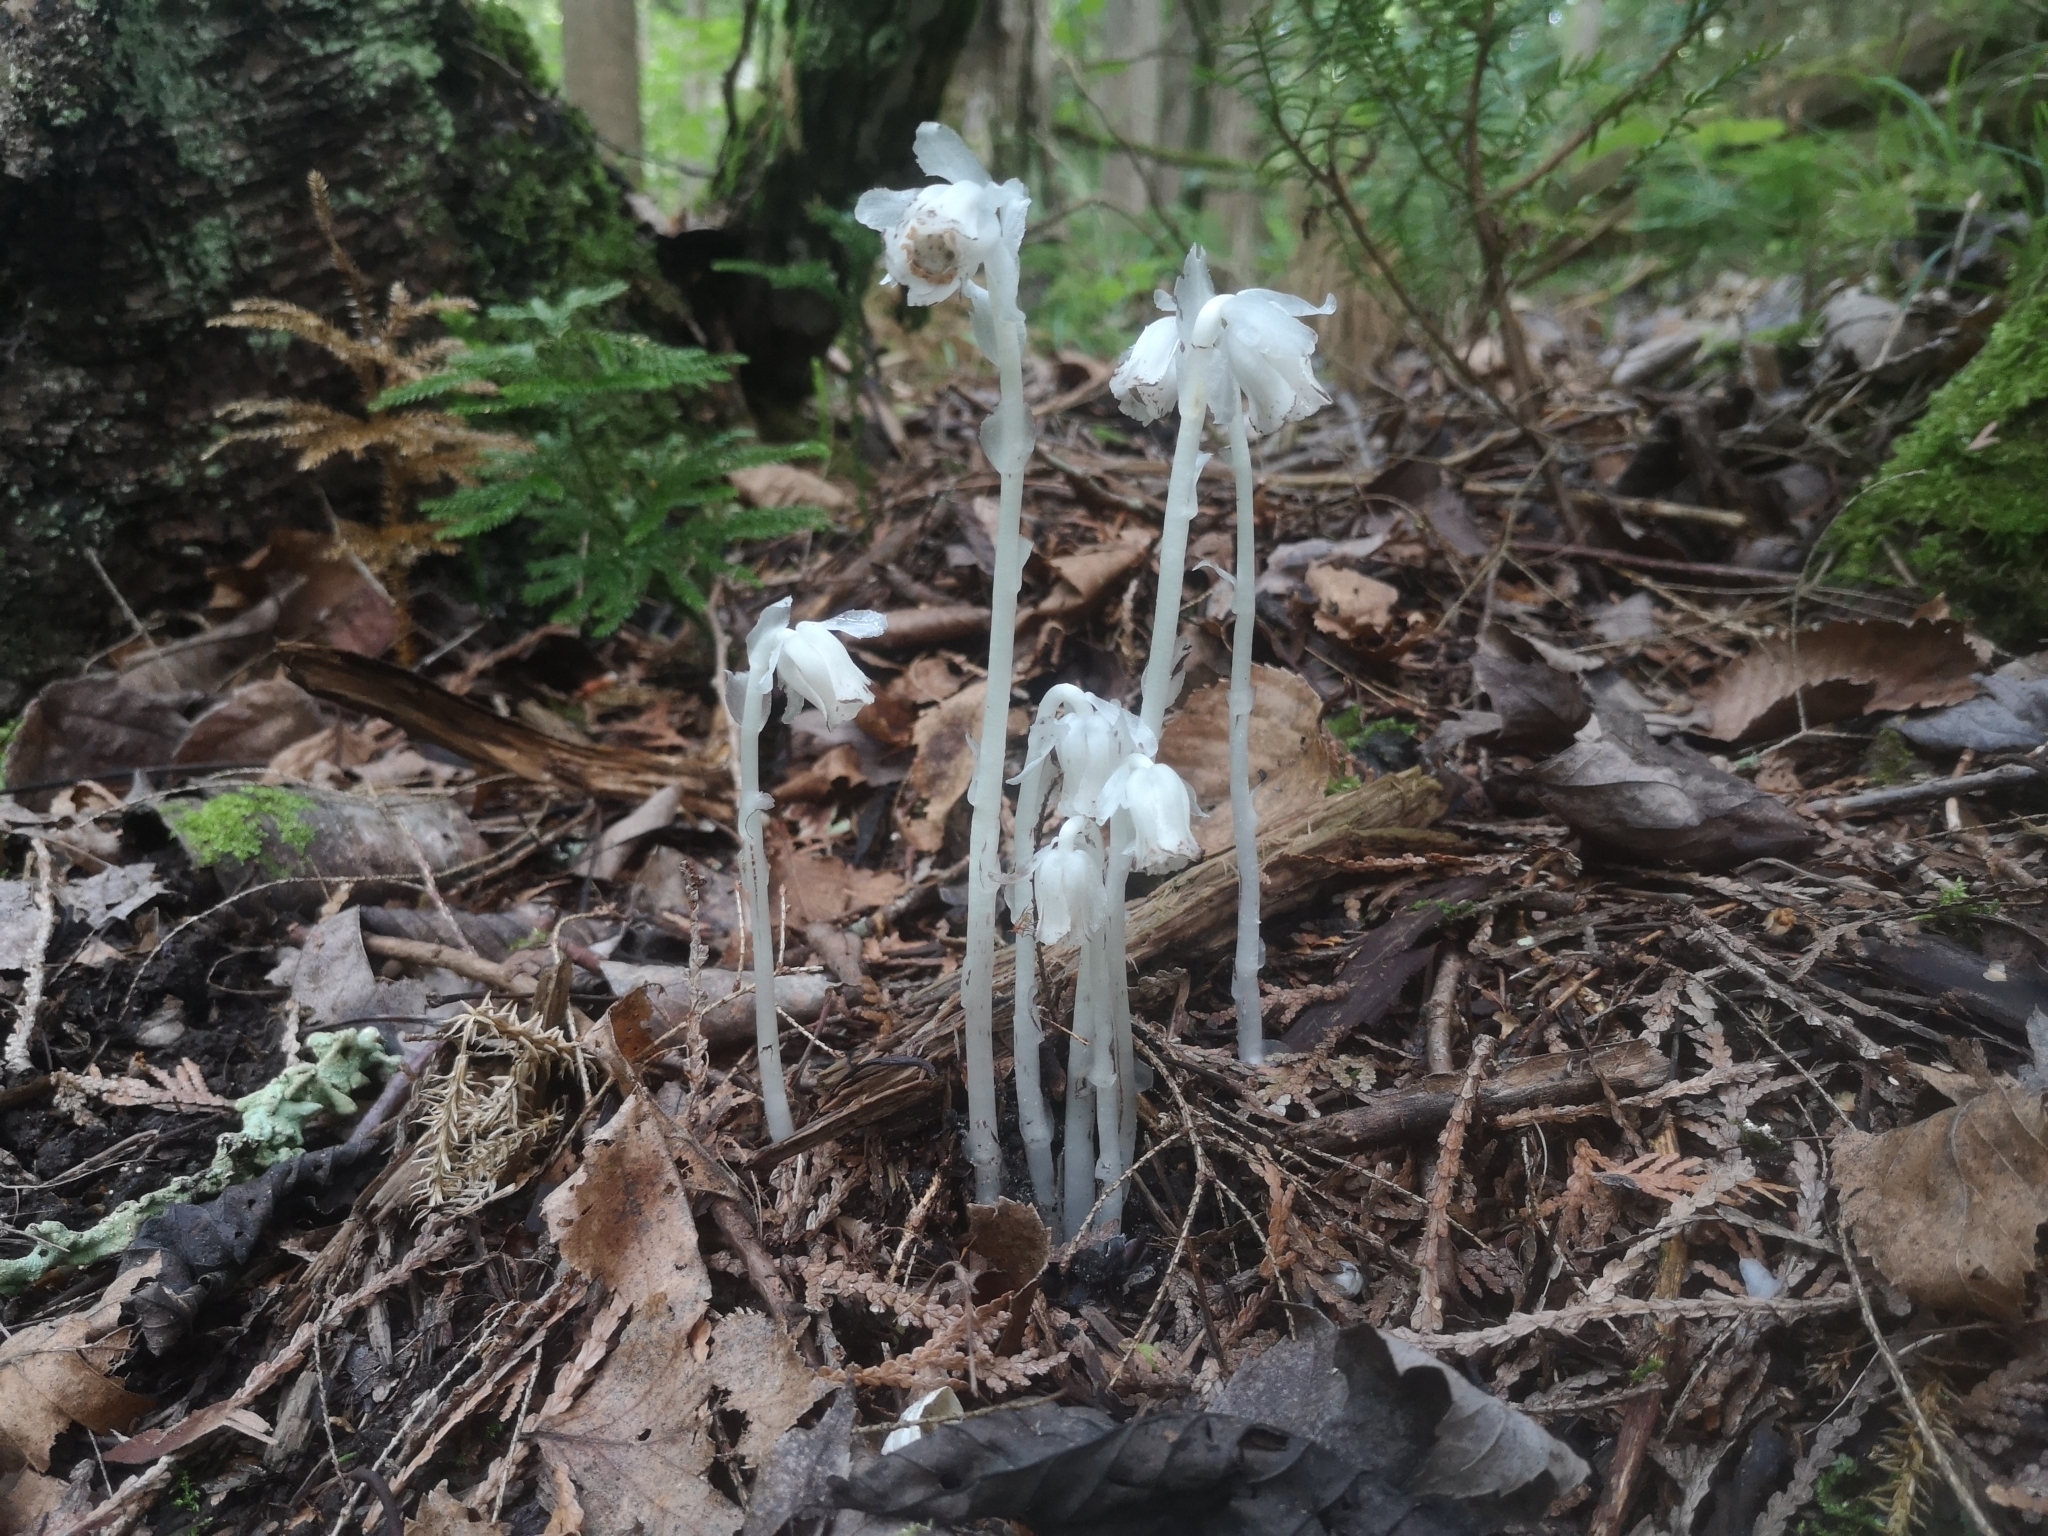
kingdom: Plantae
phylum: Tracheophyta
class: Magnoliopsida
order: Ericales
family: Ericaceae
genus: Monotropa
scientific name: Monotropa uniflora
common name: Convulsion root
